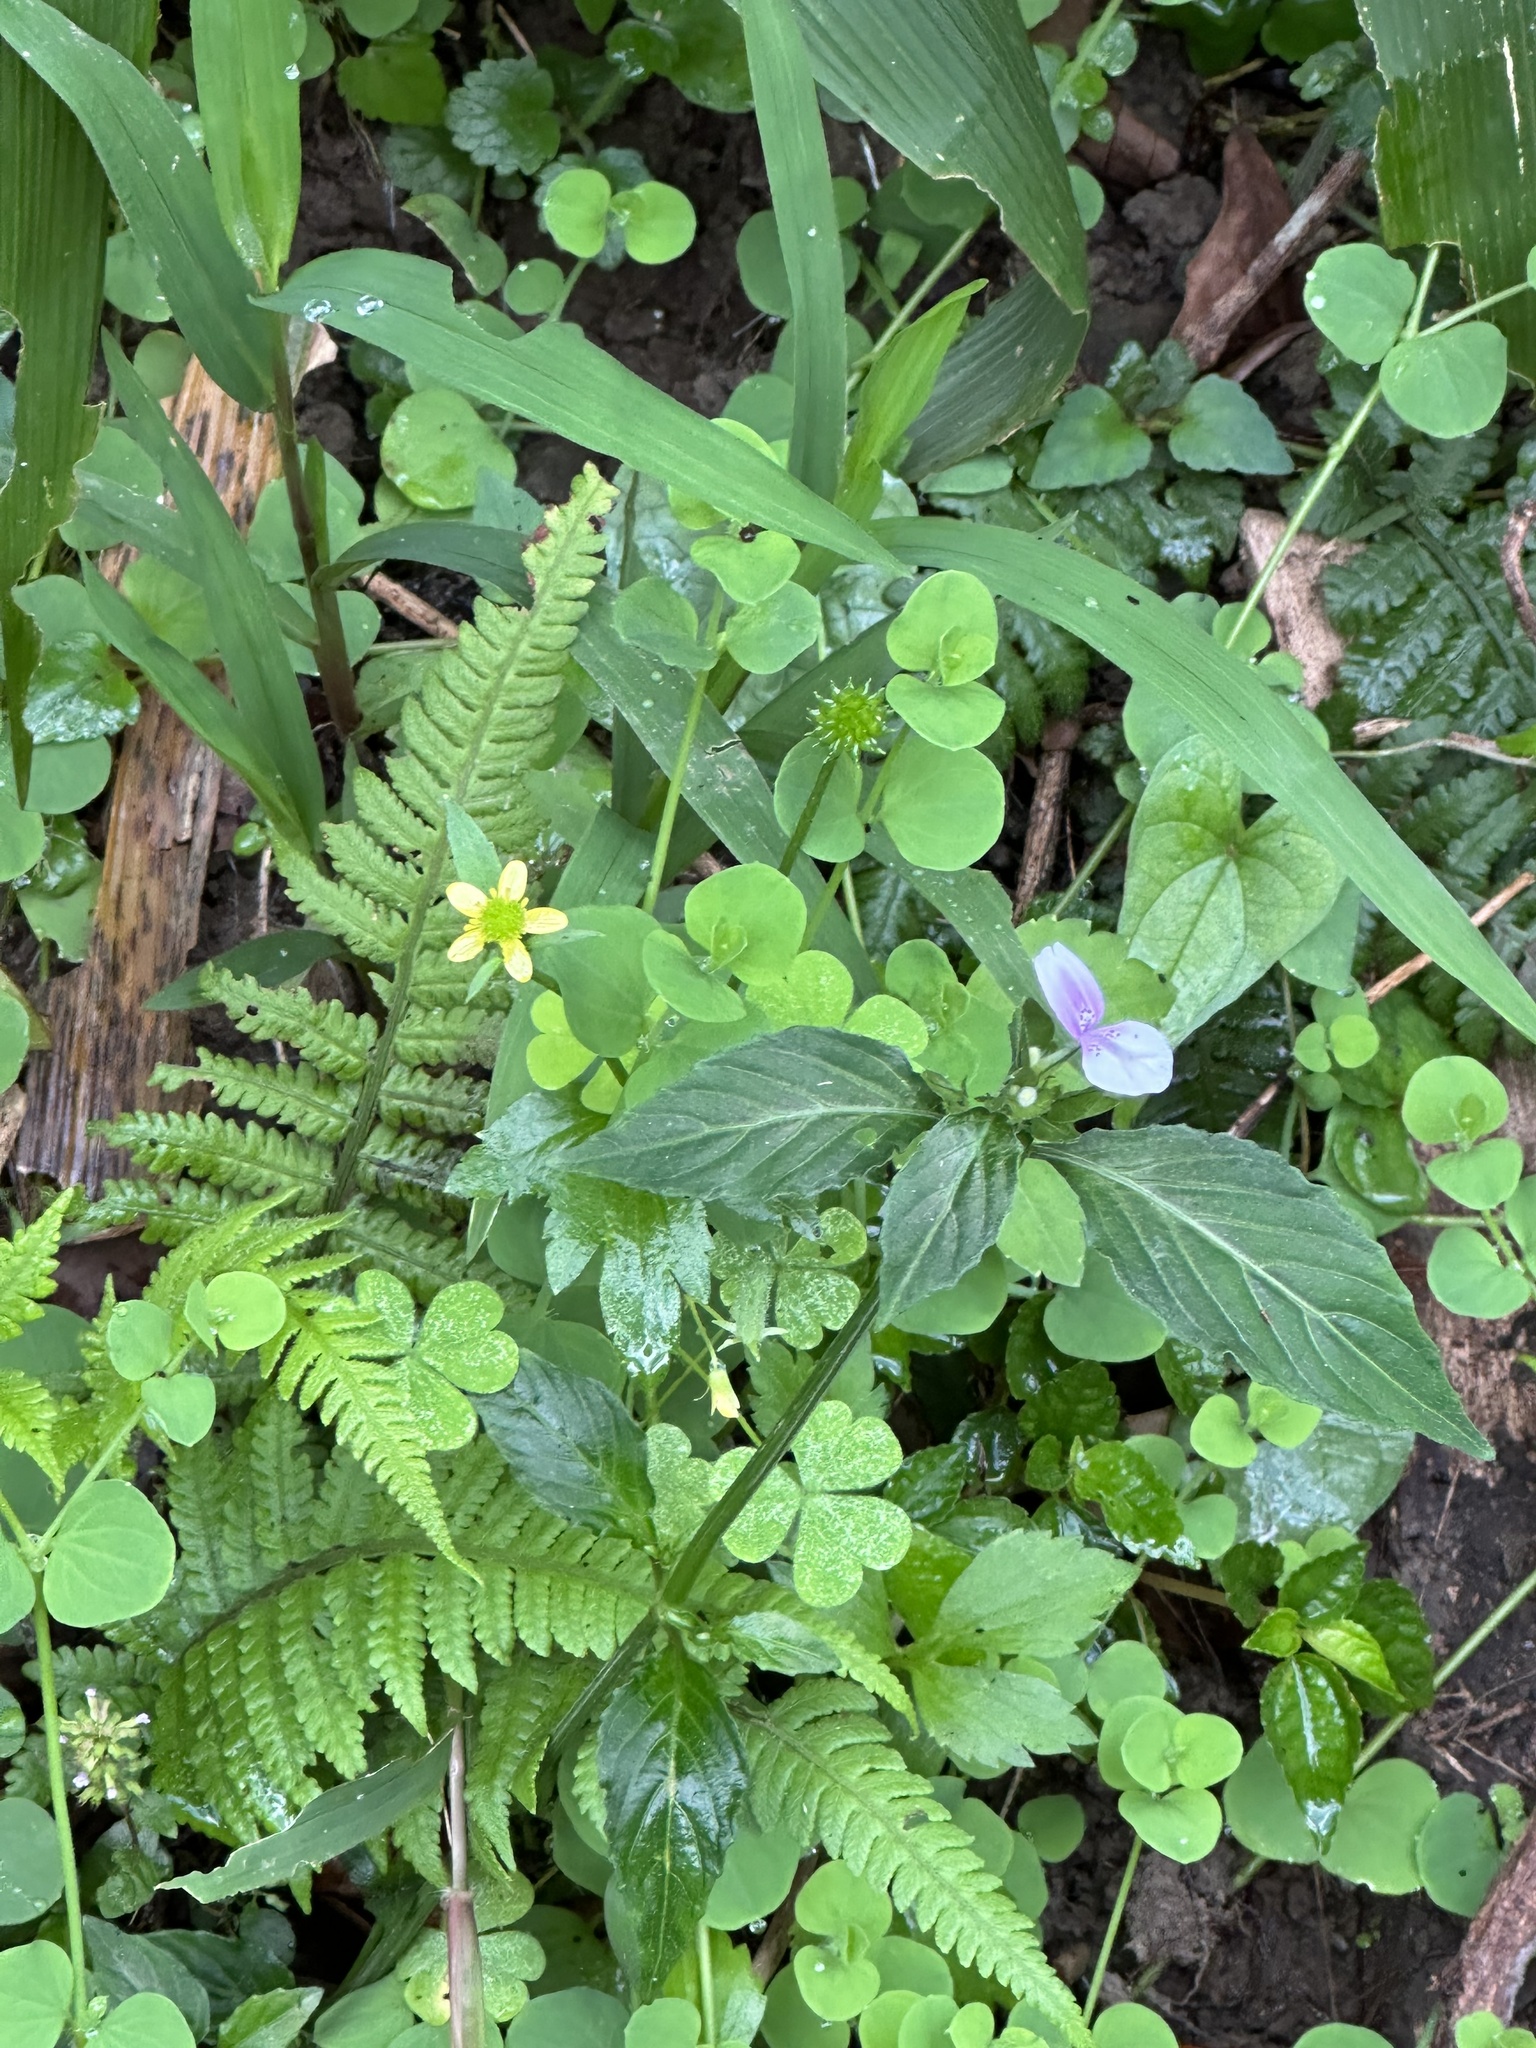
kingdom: Plantae
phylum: Tracheophyta
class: Magnoliopsida
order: Lamiales
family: Acanthaceae
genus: Dicliptera
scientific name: Dicliptera japonica
